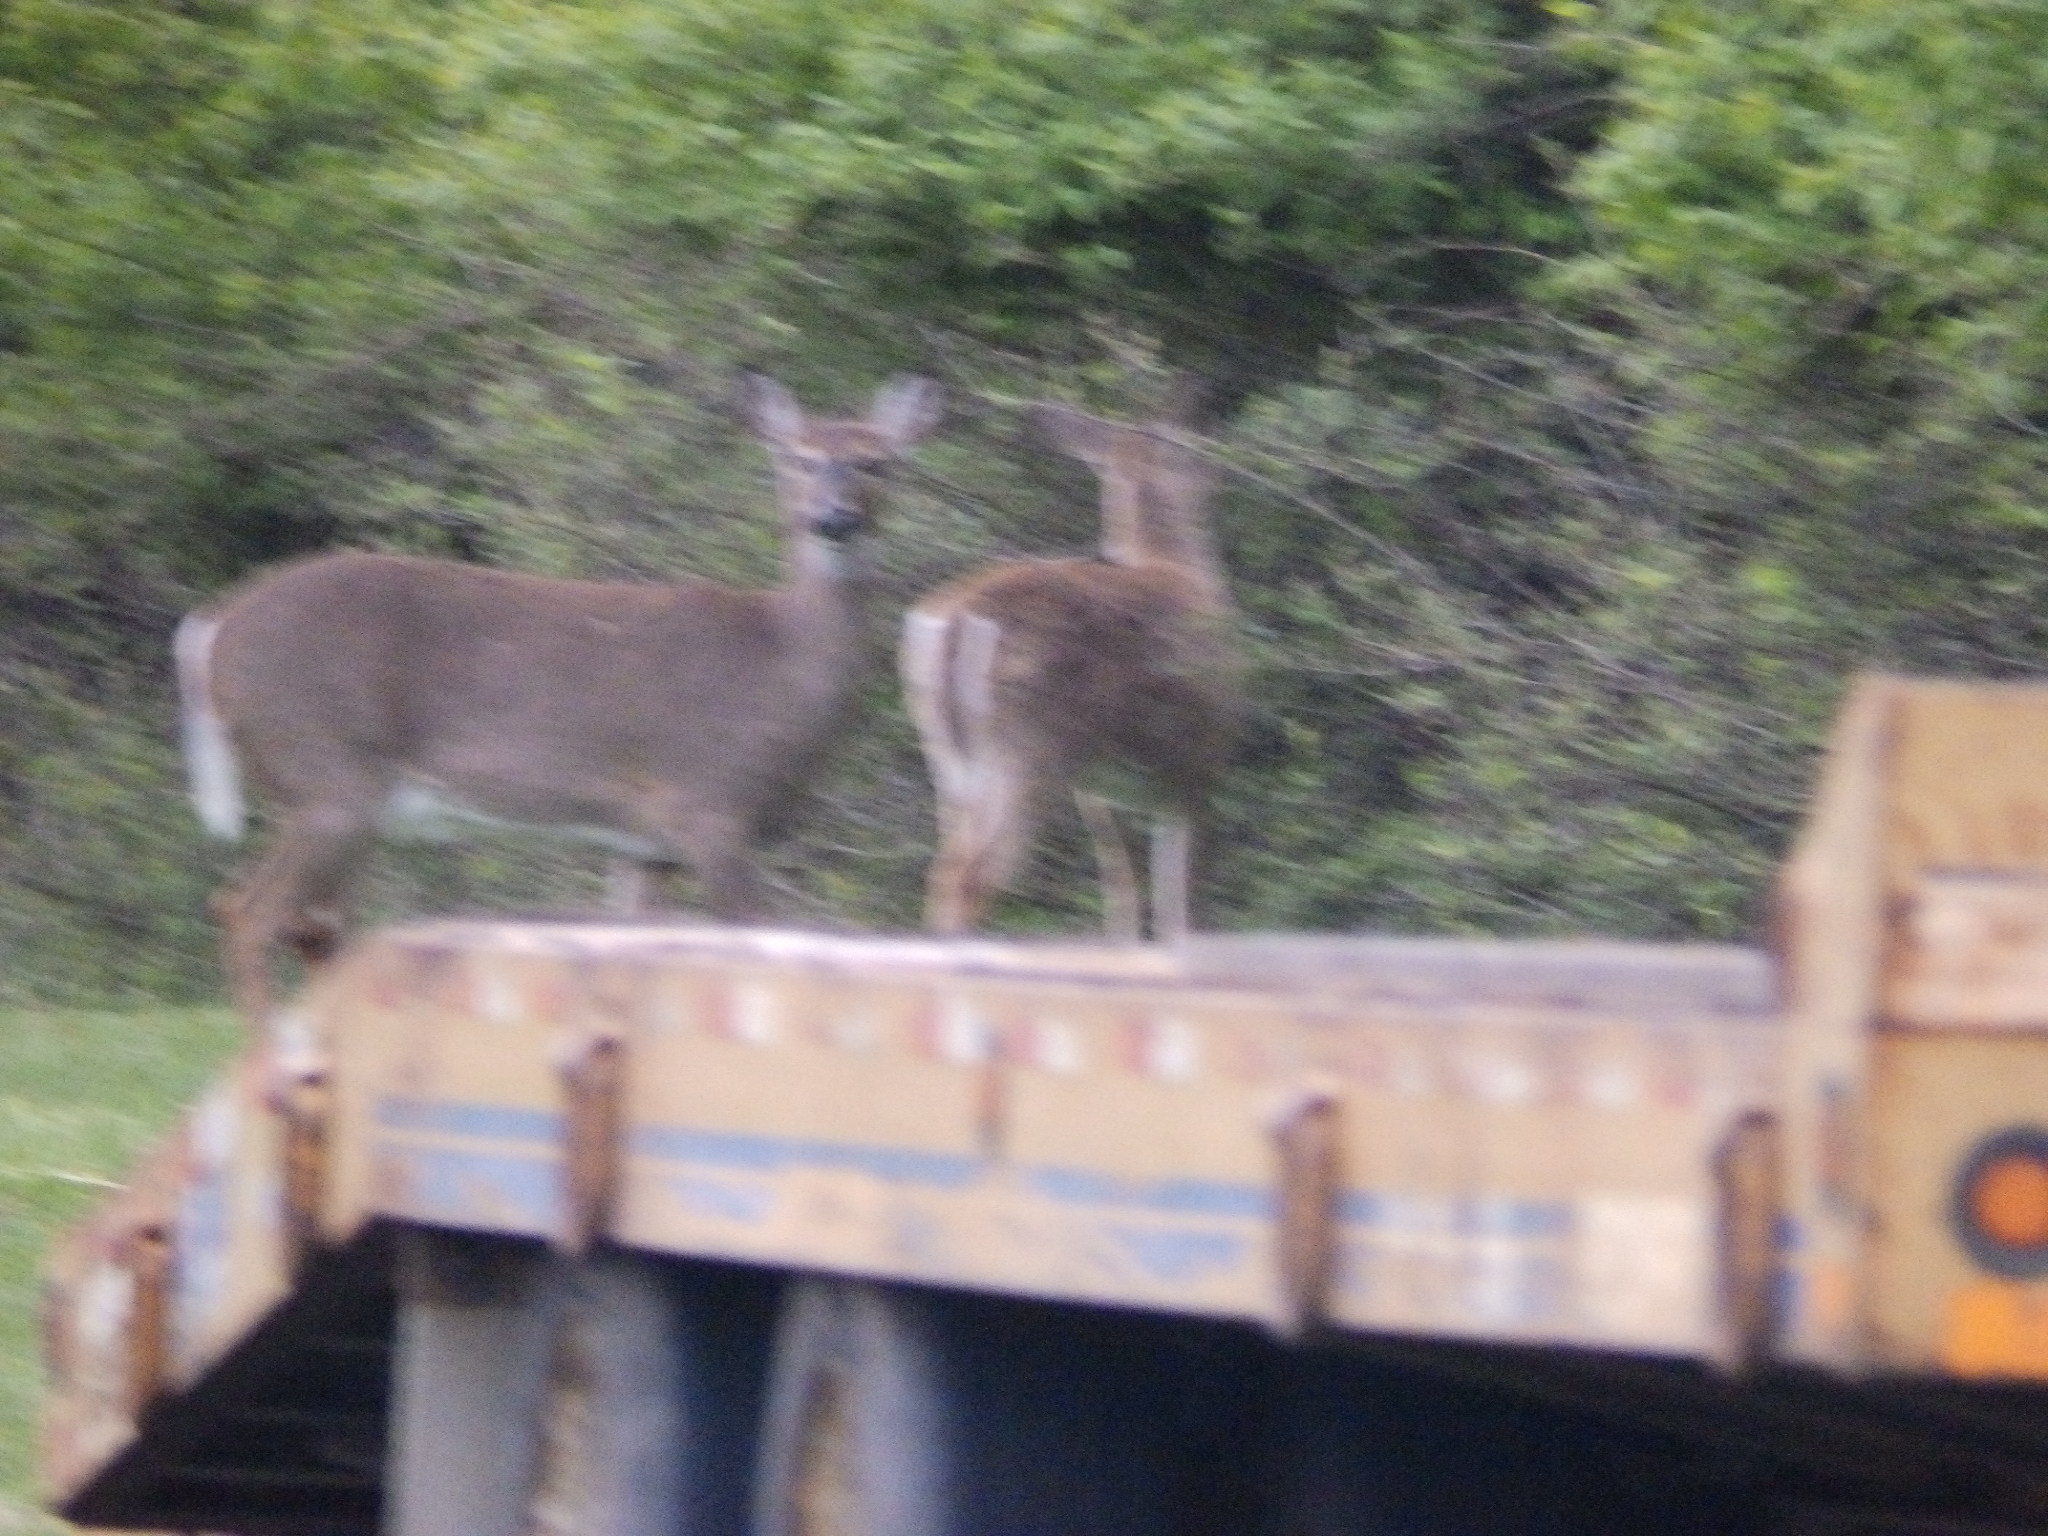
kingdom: Animalia
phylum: Chordata
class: Mammalia
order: Artiodactyla
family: Cervidae
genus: Odocoileus
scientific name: Odocoileus virginianus
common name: White-tailed deer
